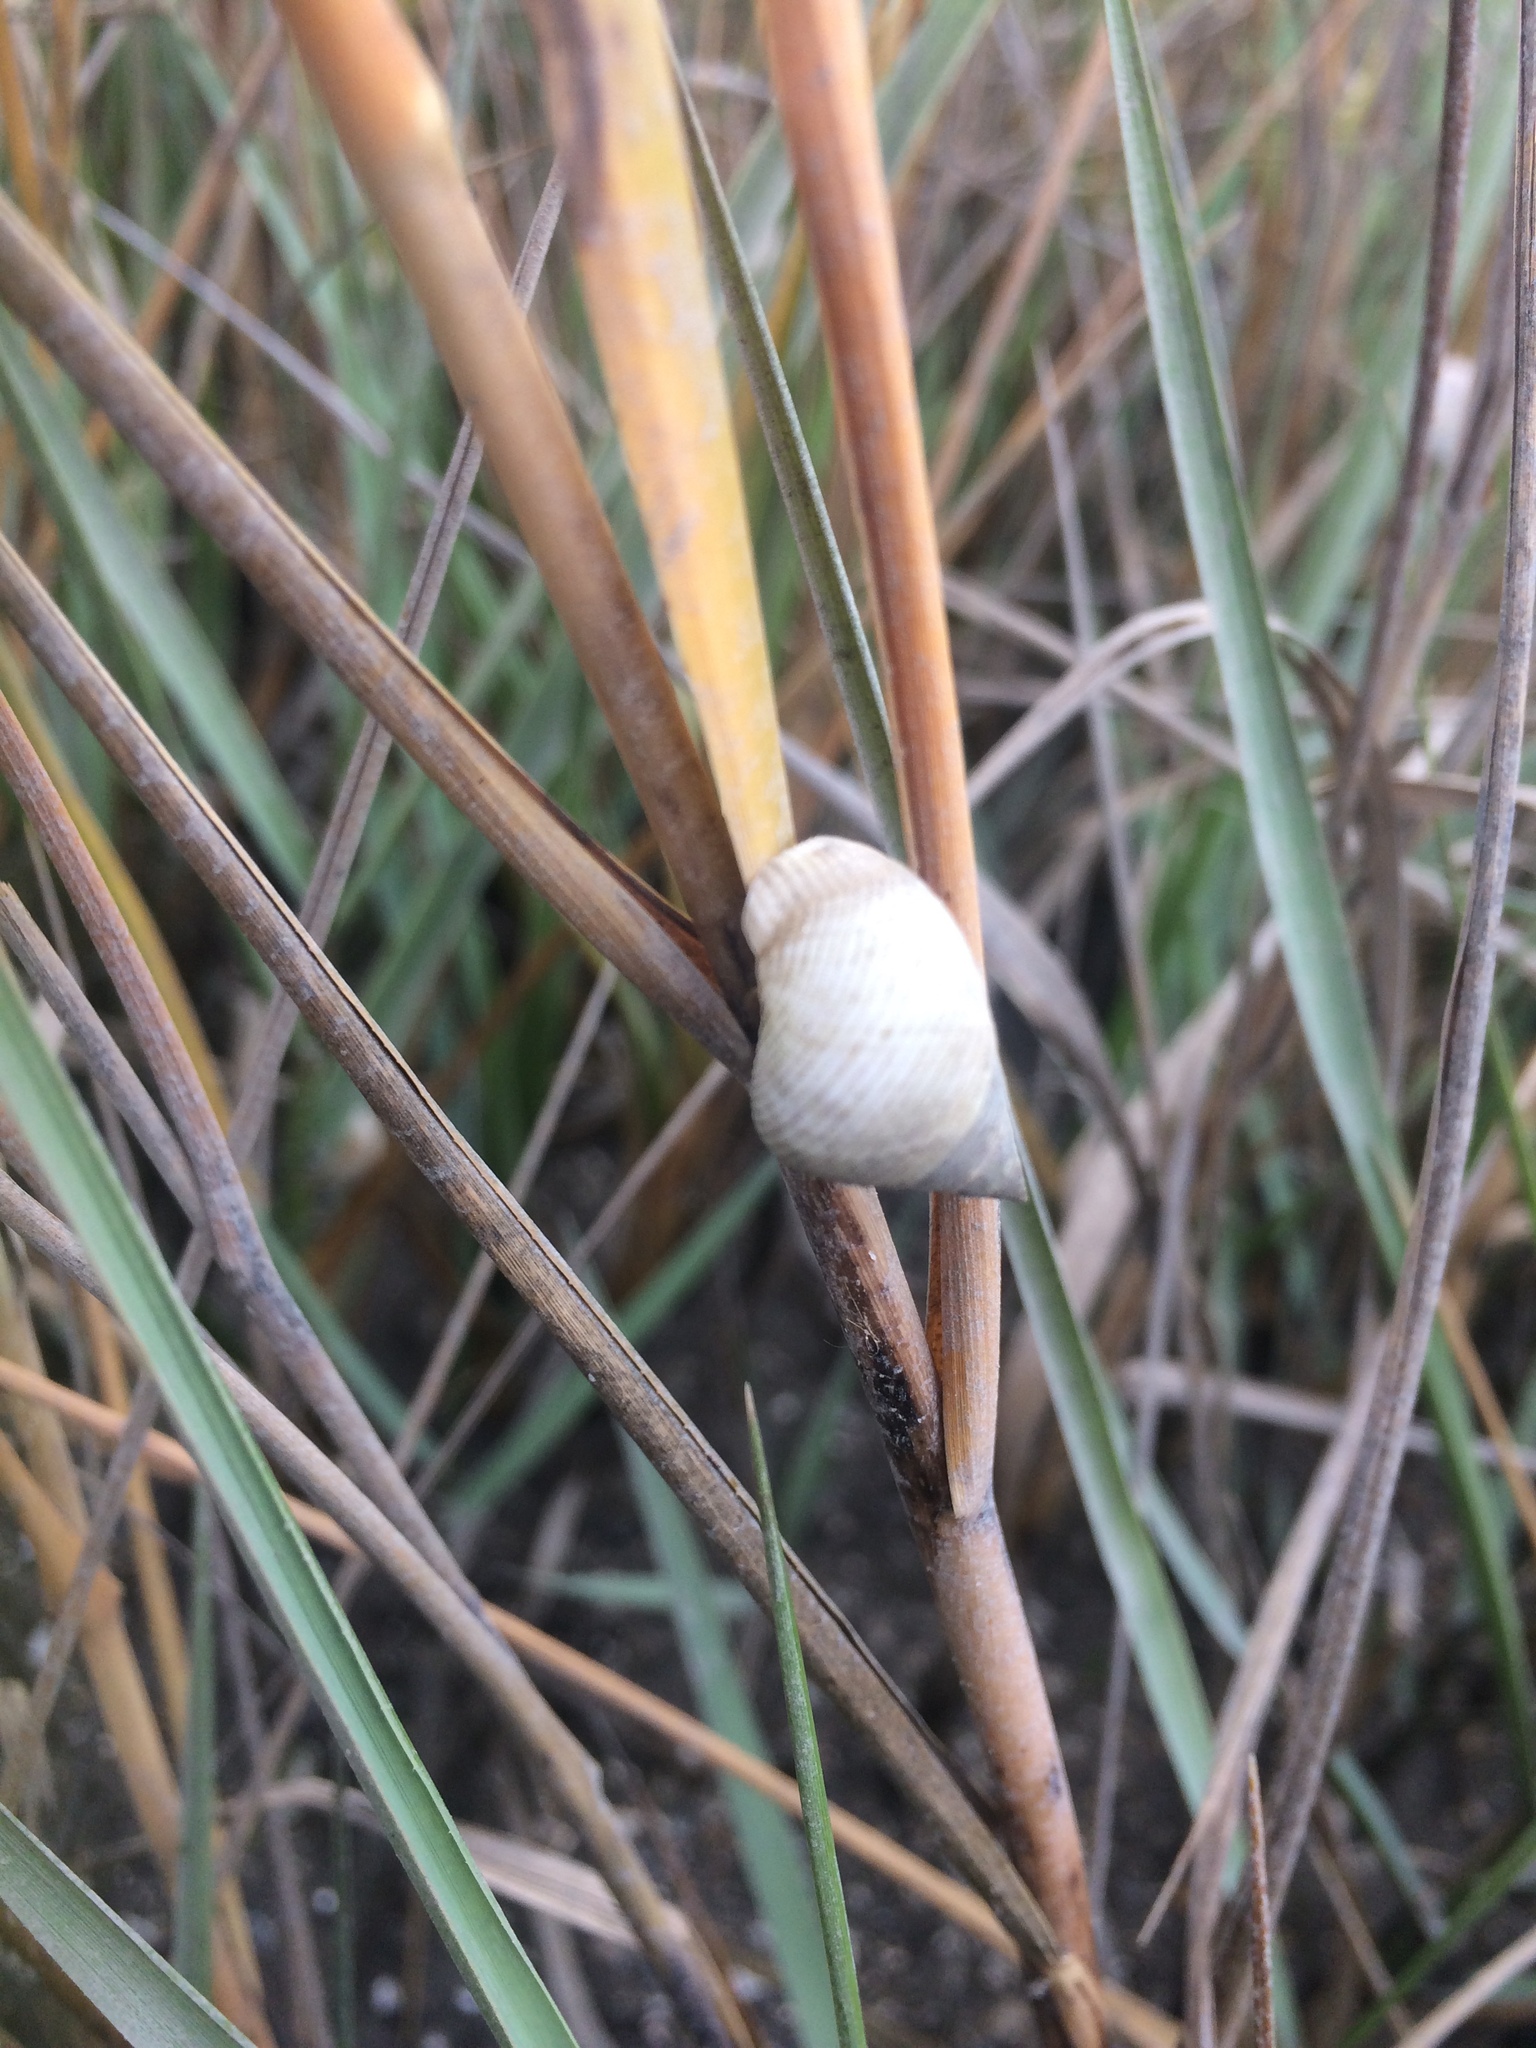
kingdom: Animalia
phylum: Mollusca
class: Gastropoda
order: Littorinimorpha
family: Littorinidae
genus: Littoraria
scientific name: Littoraria irrorata
